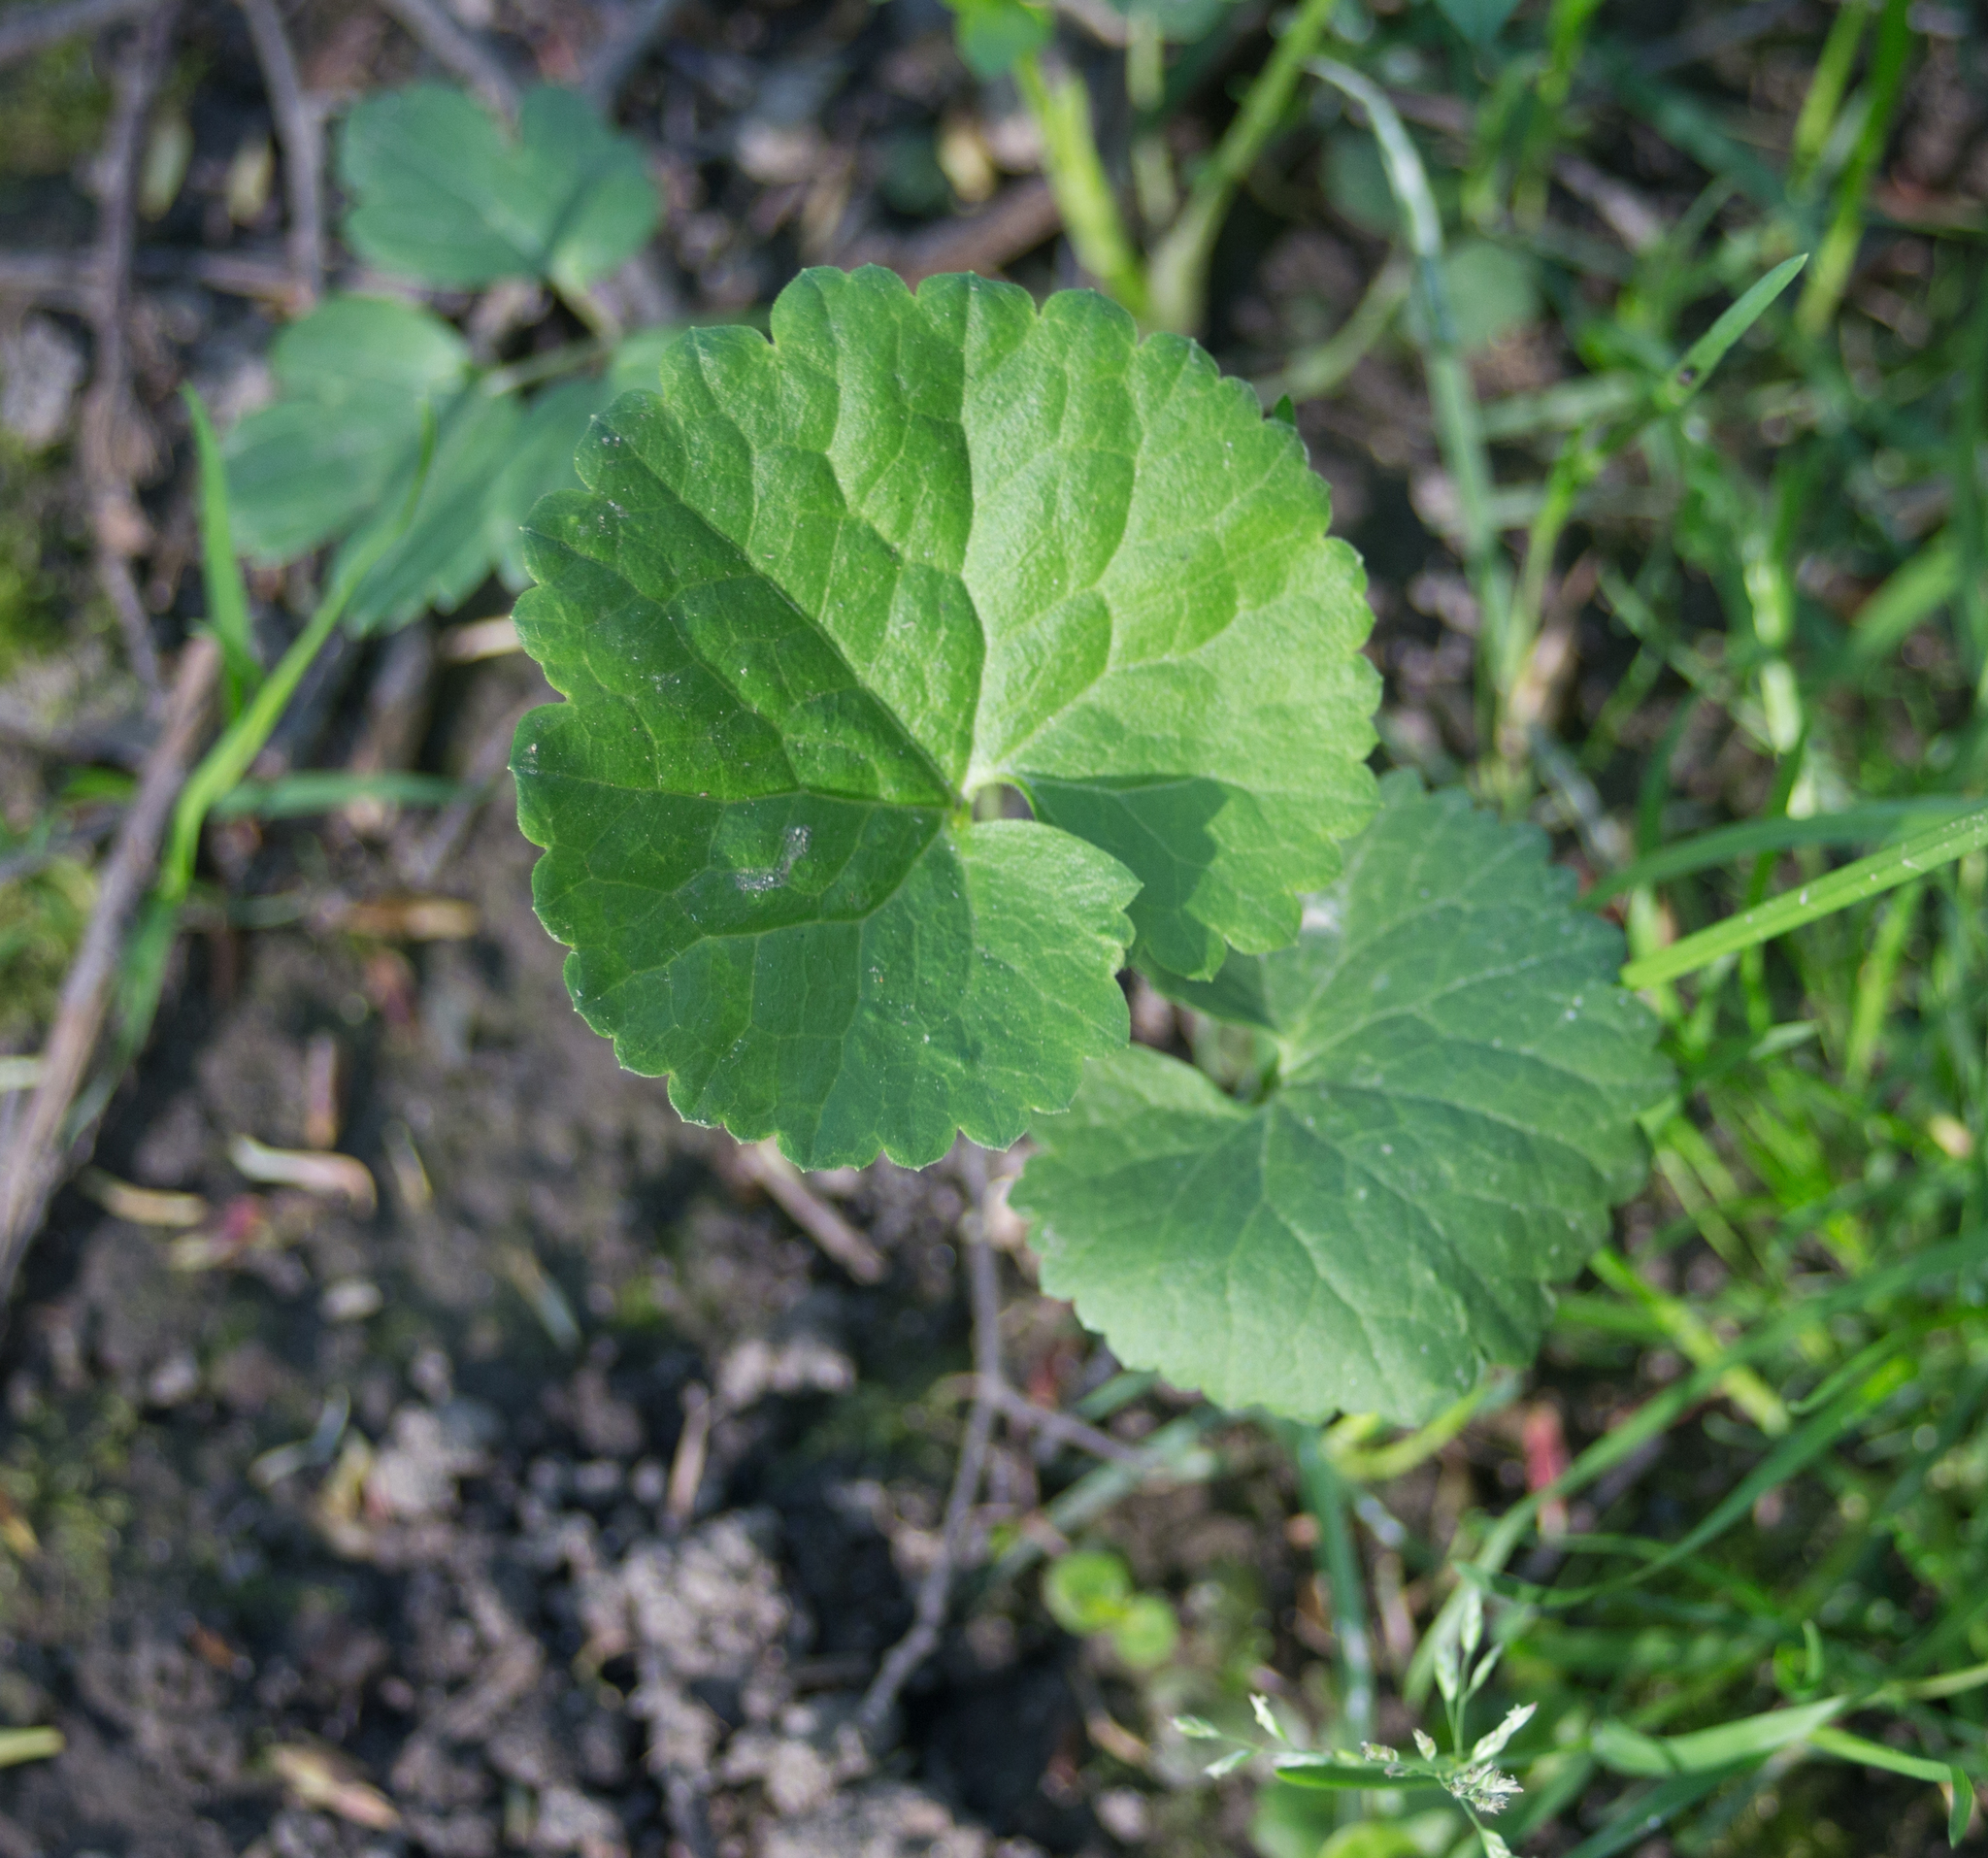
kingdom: Plantae
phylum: Tracheophyta
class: Magnoliopsida
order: Ranunculales
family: Ranunculaceae
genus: Ranunculus
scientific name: Ranunculus cassubicus
